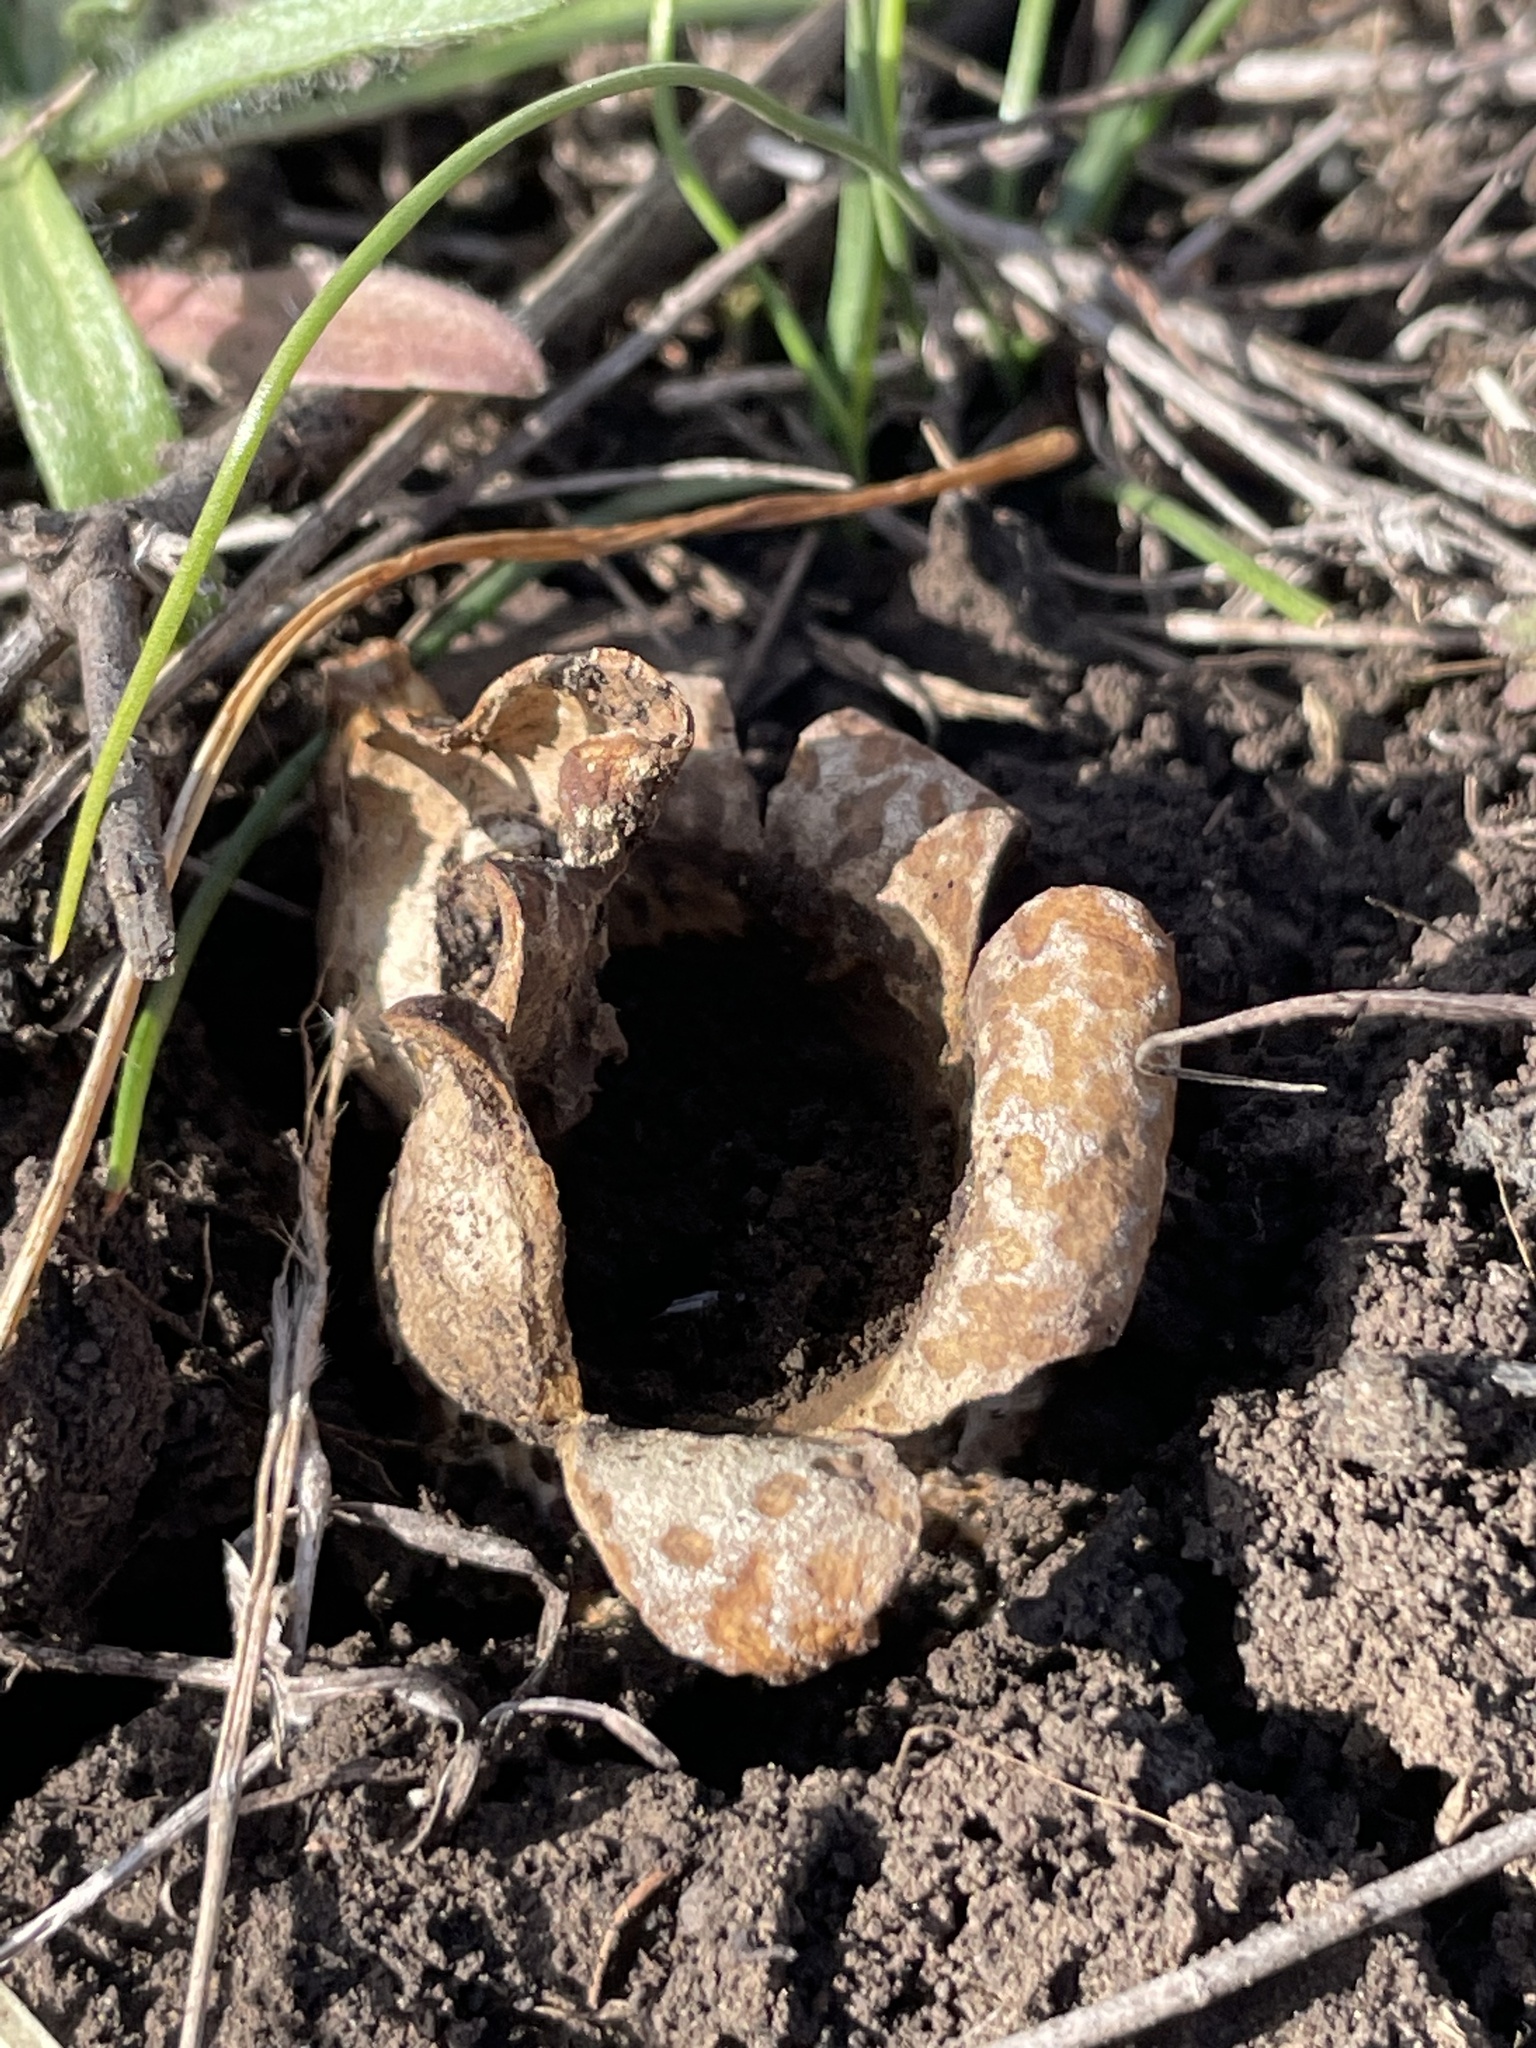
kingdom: Fungi
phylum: Basidiomycota
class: Agaricomycetes
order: Boletales
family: Sclerodermataceae
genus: Scleroderma
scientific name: Scleroderma polyrhizum
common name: Many-rooted earthball
